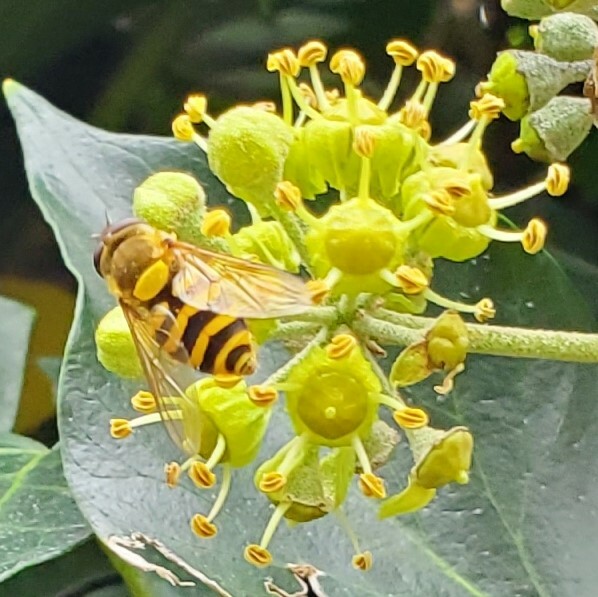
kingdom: Animalia
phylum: Arthropoda
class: Insecta
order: Diptera
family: Syrphidae
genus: Syrphus
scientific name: Syrphus
